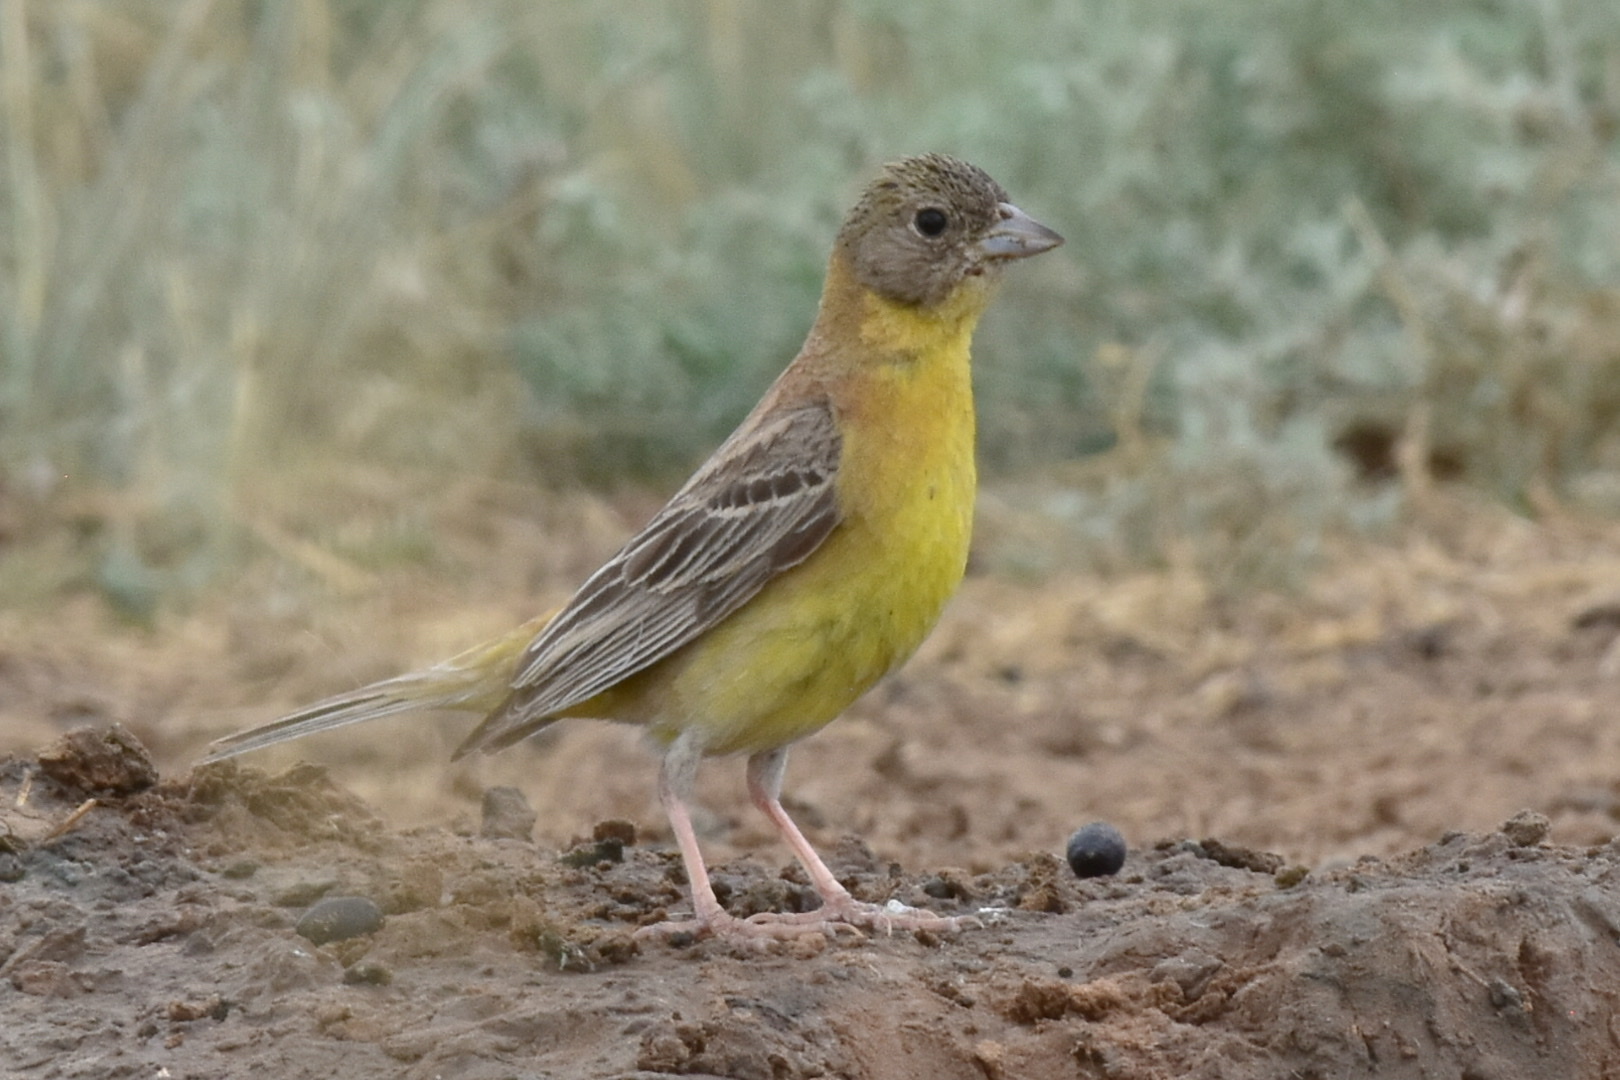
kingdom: Animalia
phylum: Chordata
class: Aves
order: Passeriformes
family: Emberizidae
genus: Emberiza
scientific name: Emberiza melanocephala
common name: Black-headed bunting
